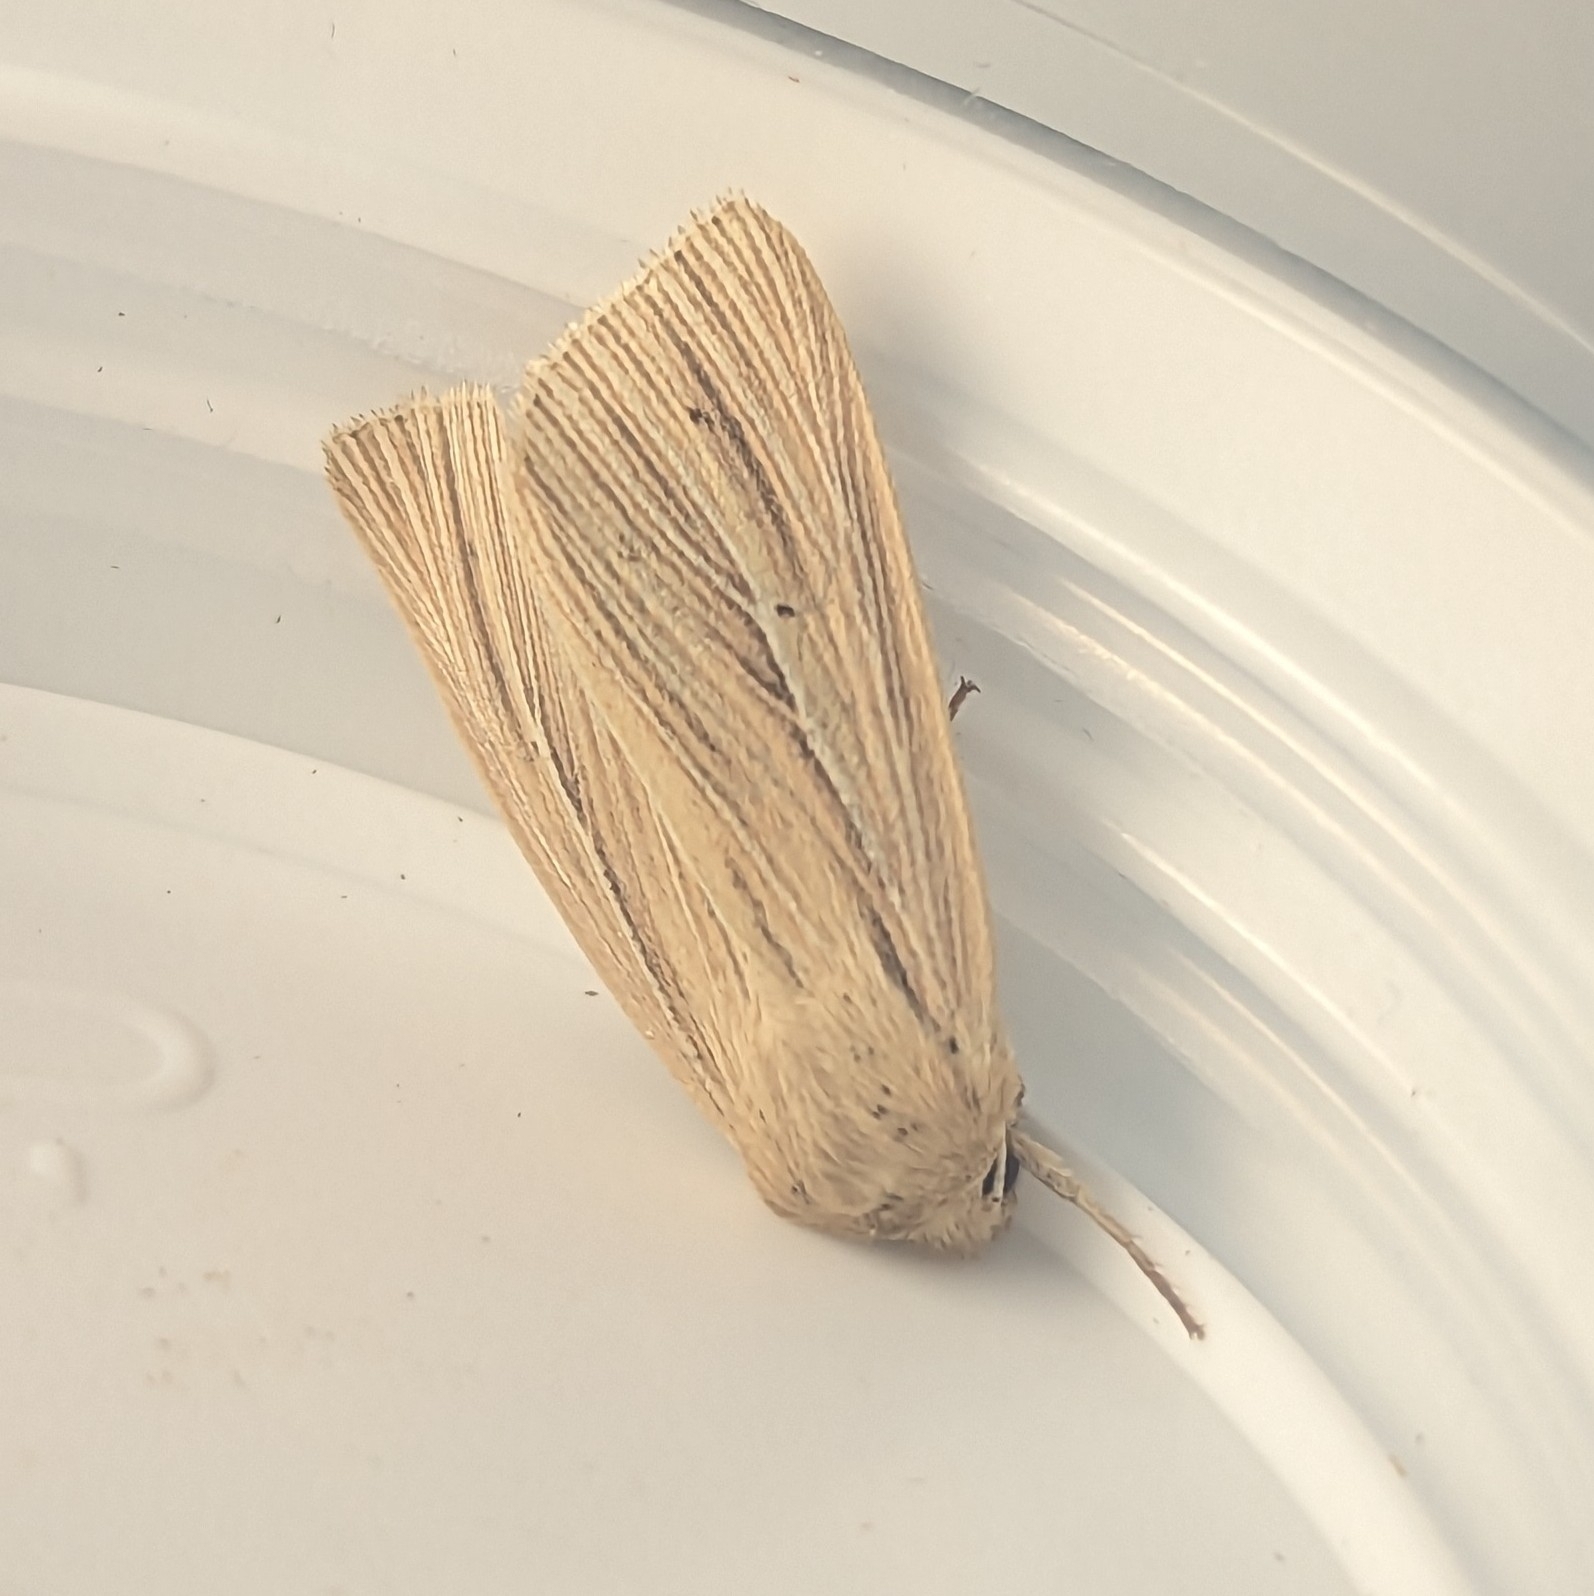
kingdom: Animalia
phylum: Arthropoda
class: Insecta
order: Lepidoptera
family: Noctuidae
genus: Mythimna
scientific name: Mythimna impura
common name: Smoky wainscot
